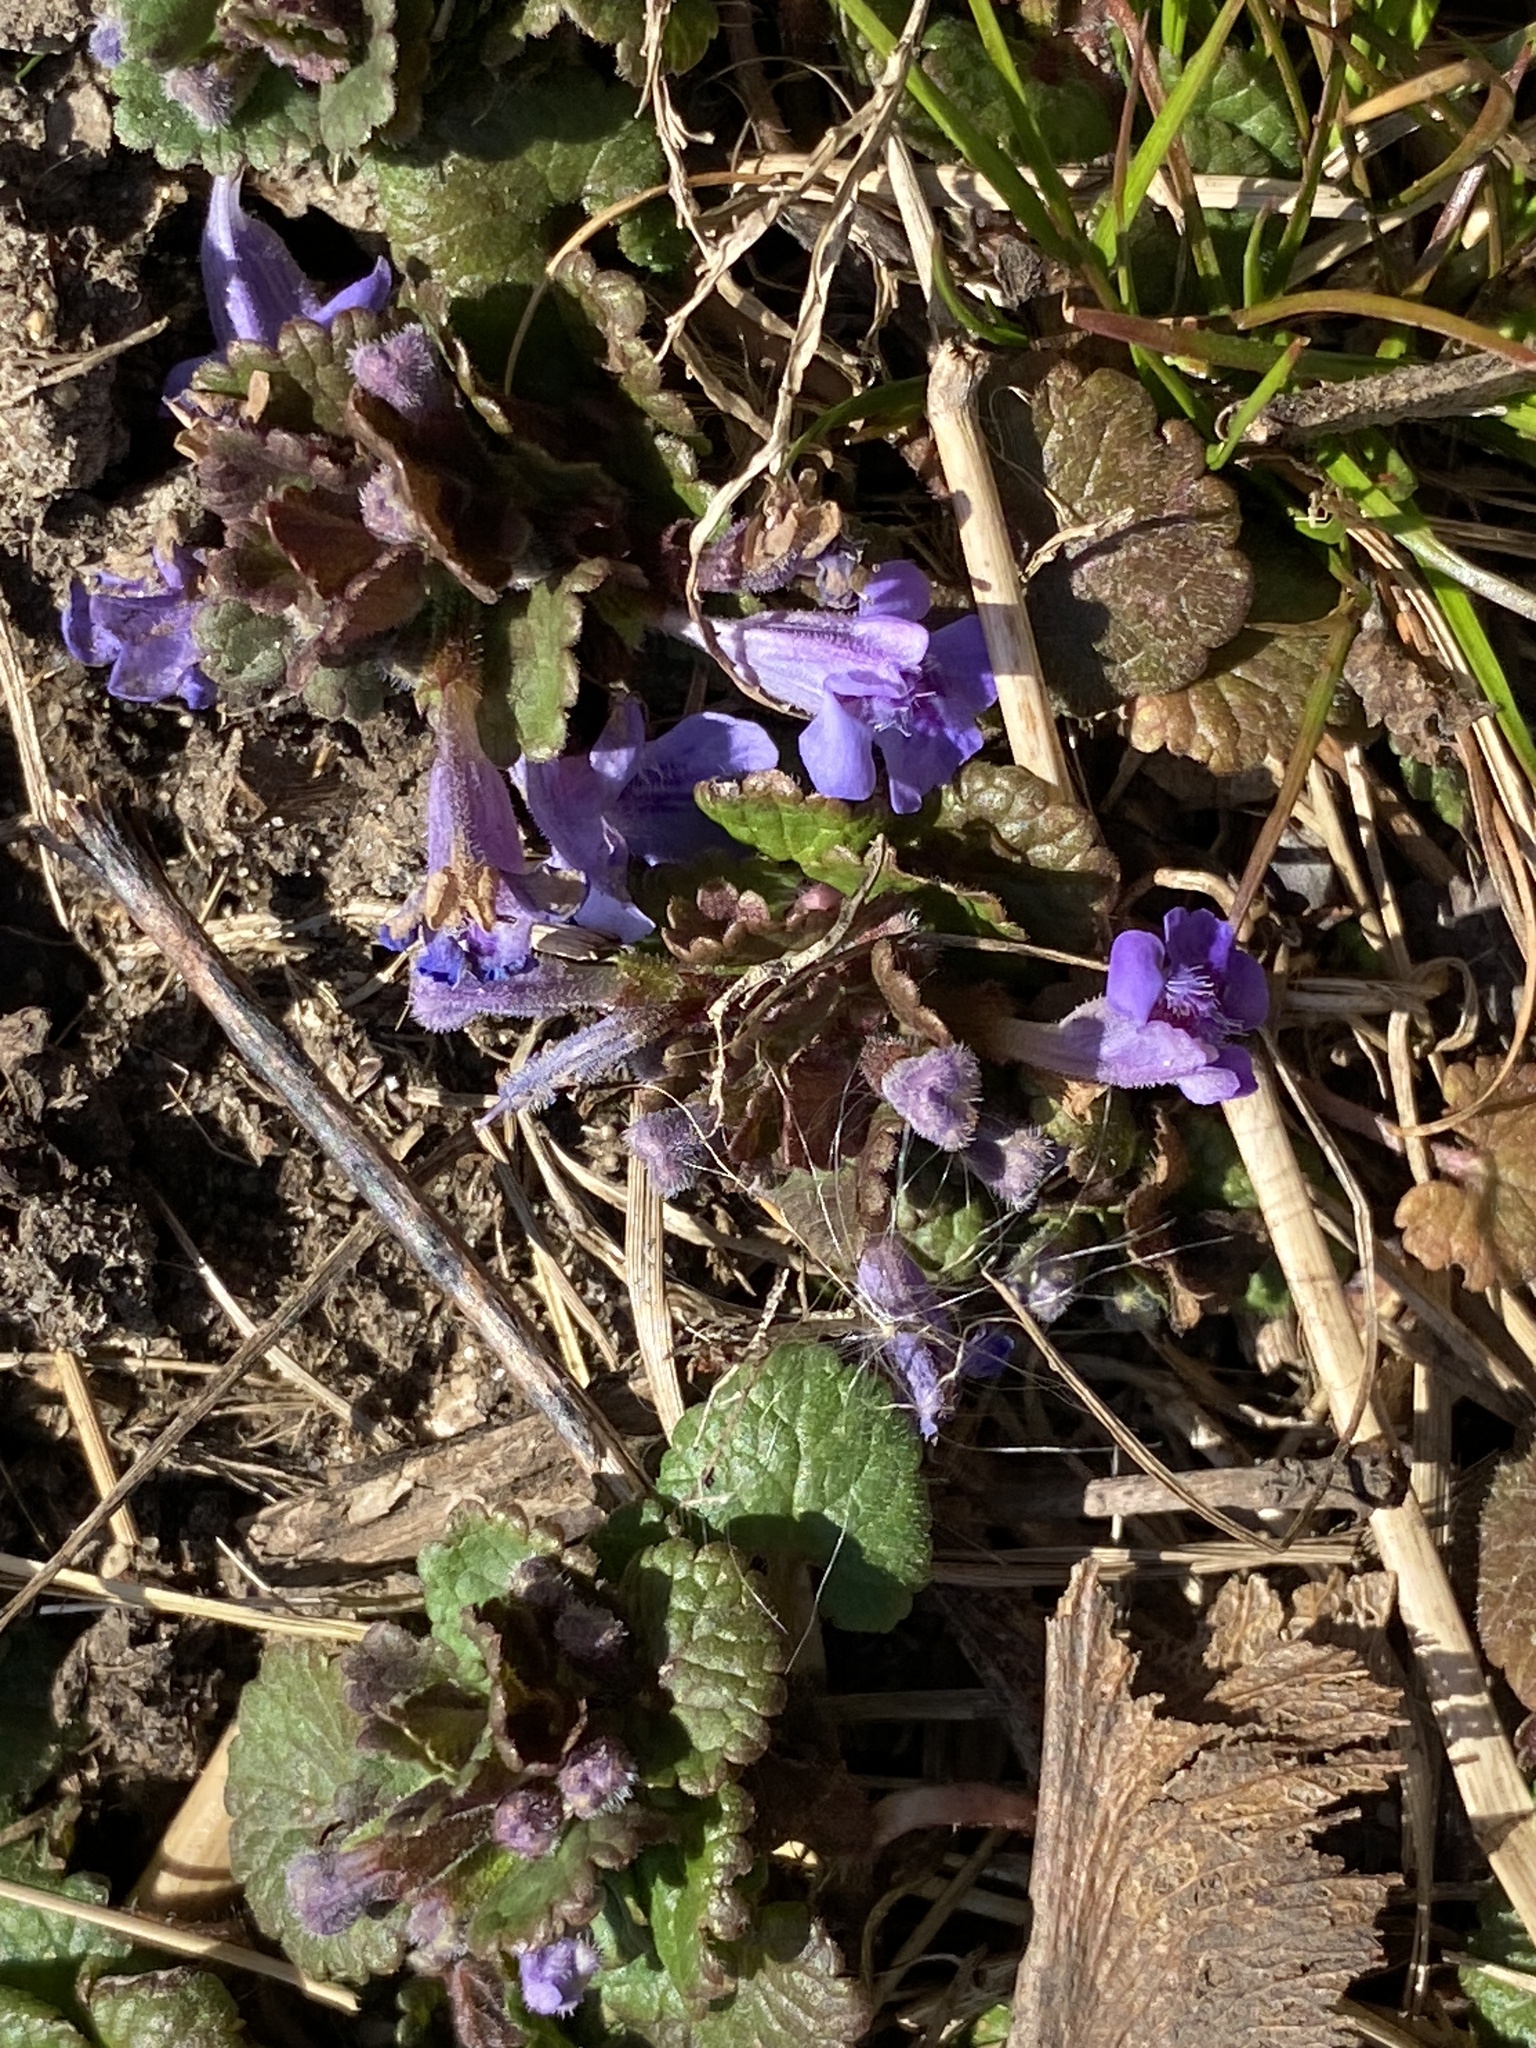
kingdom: Plantae
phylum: Tracheophyta
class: Magnoliopsida
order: Lamiales
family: Lamiaceae
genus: Glechoma
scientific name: Glechoma hederacea
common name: Ground ivy
